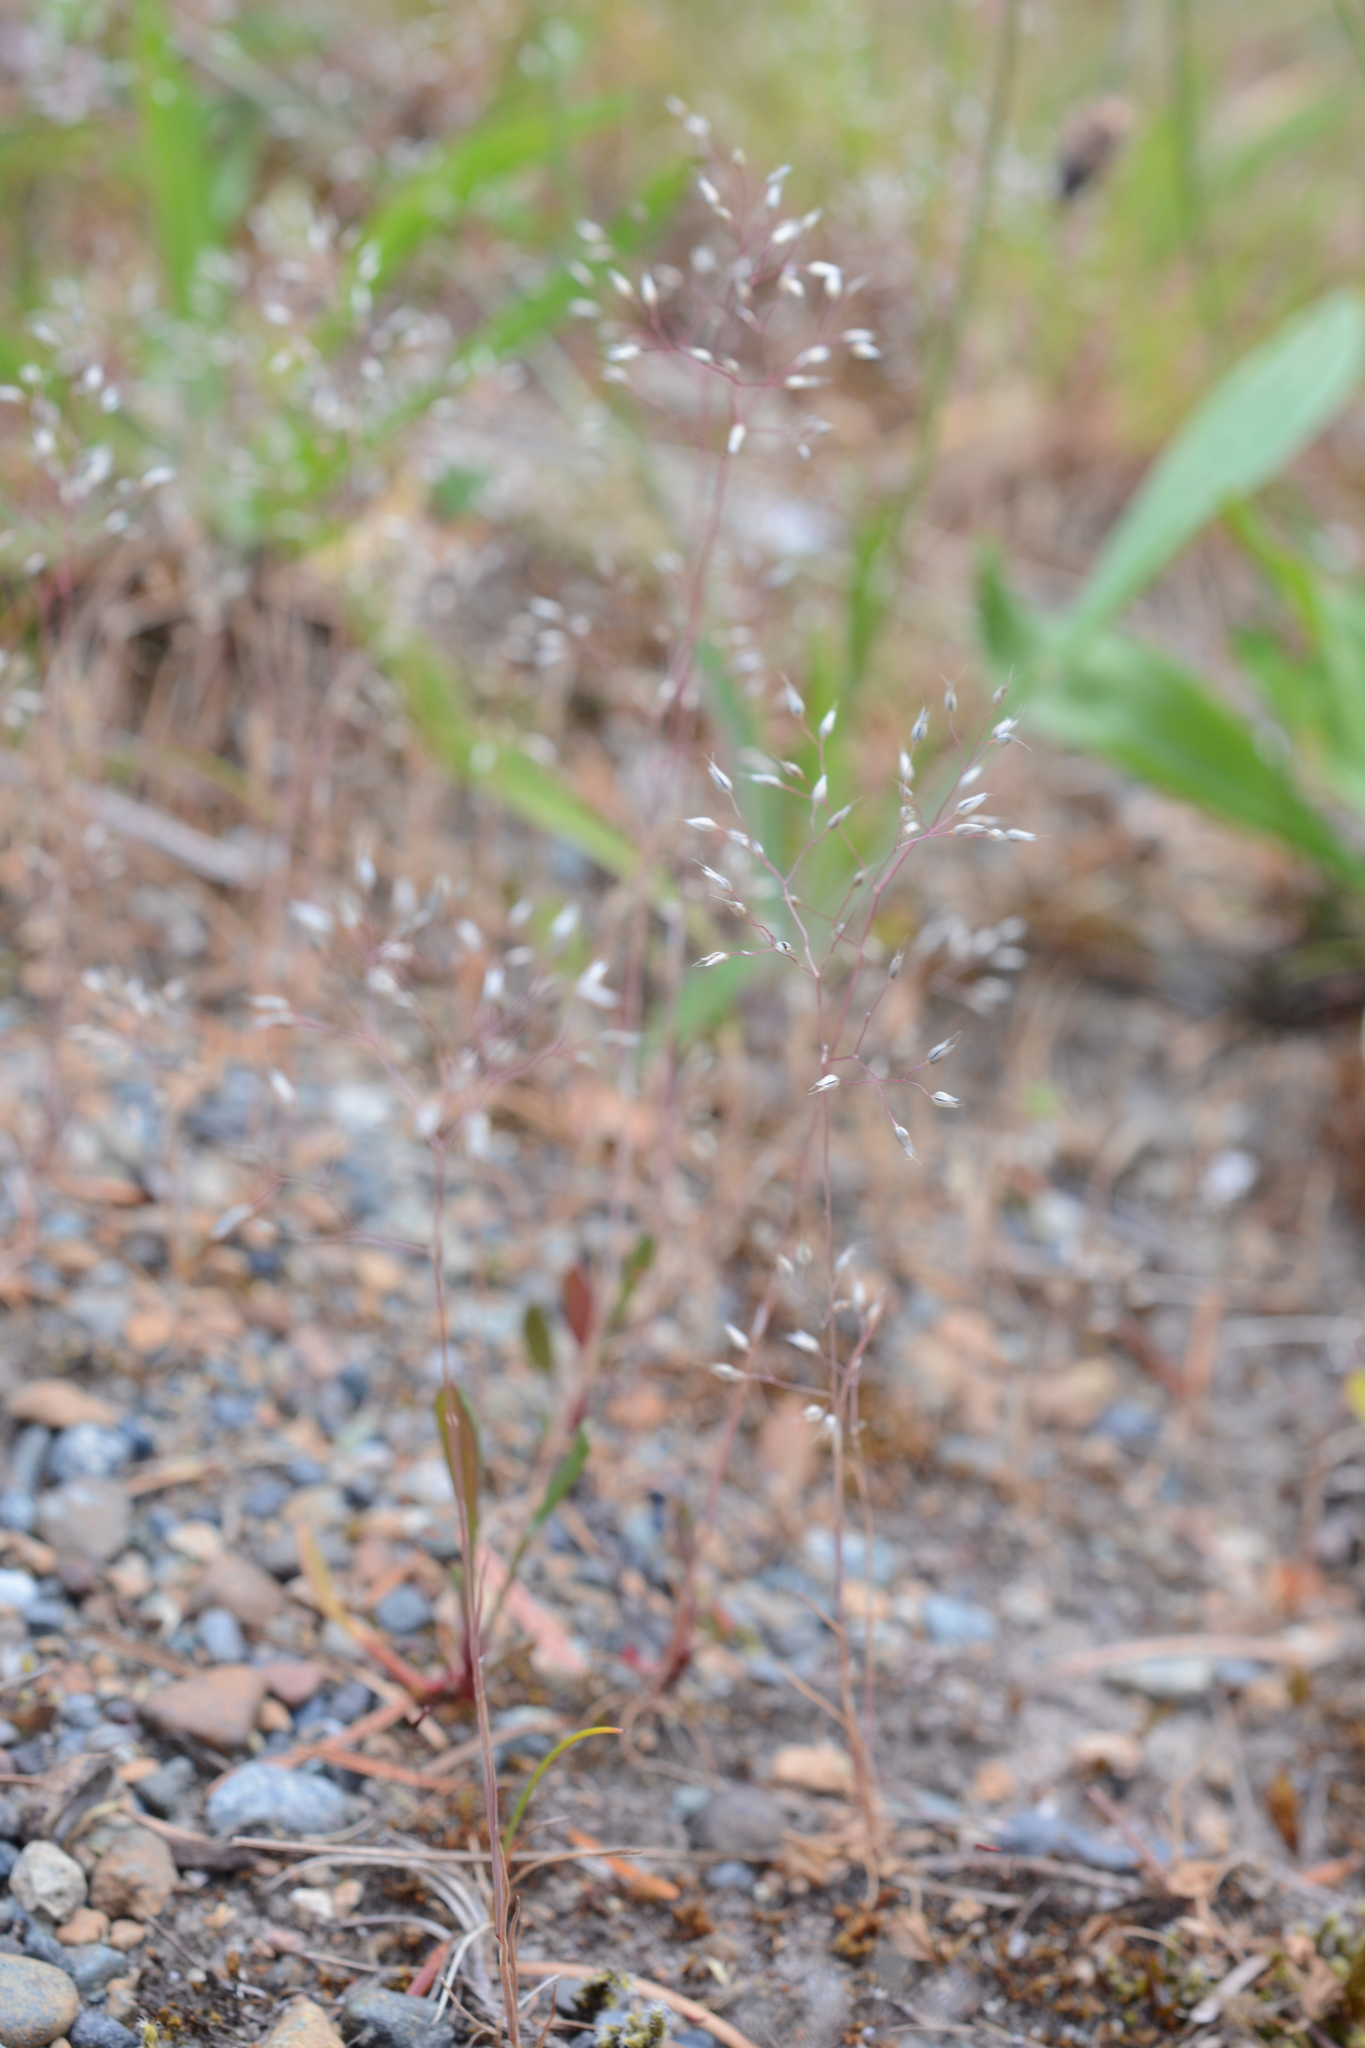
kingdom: Plantae
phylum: Tracheophyta
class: Liliopsida
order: Poales
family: Poaceae
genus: Aira
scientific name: Aira caryophyllea
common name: Silver hairgrass
